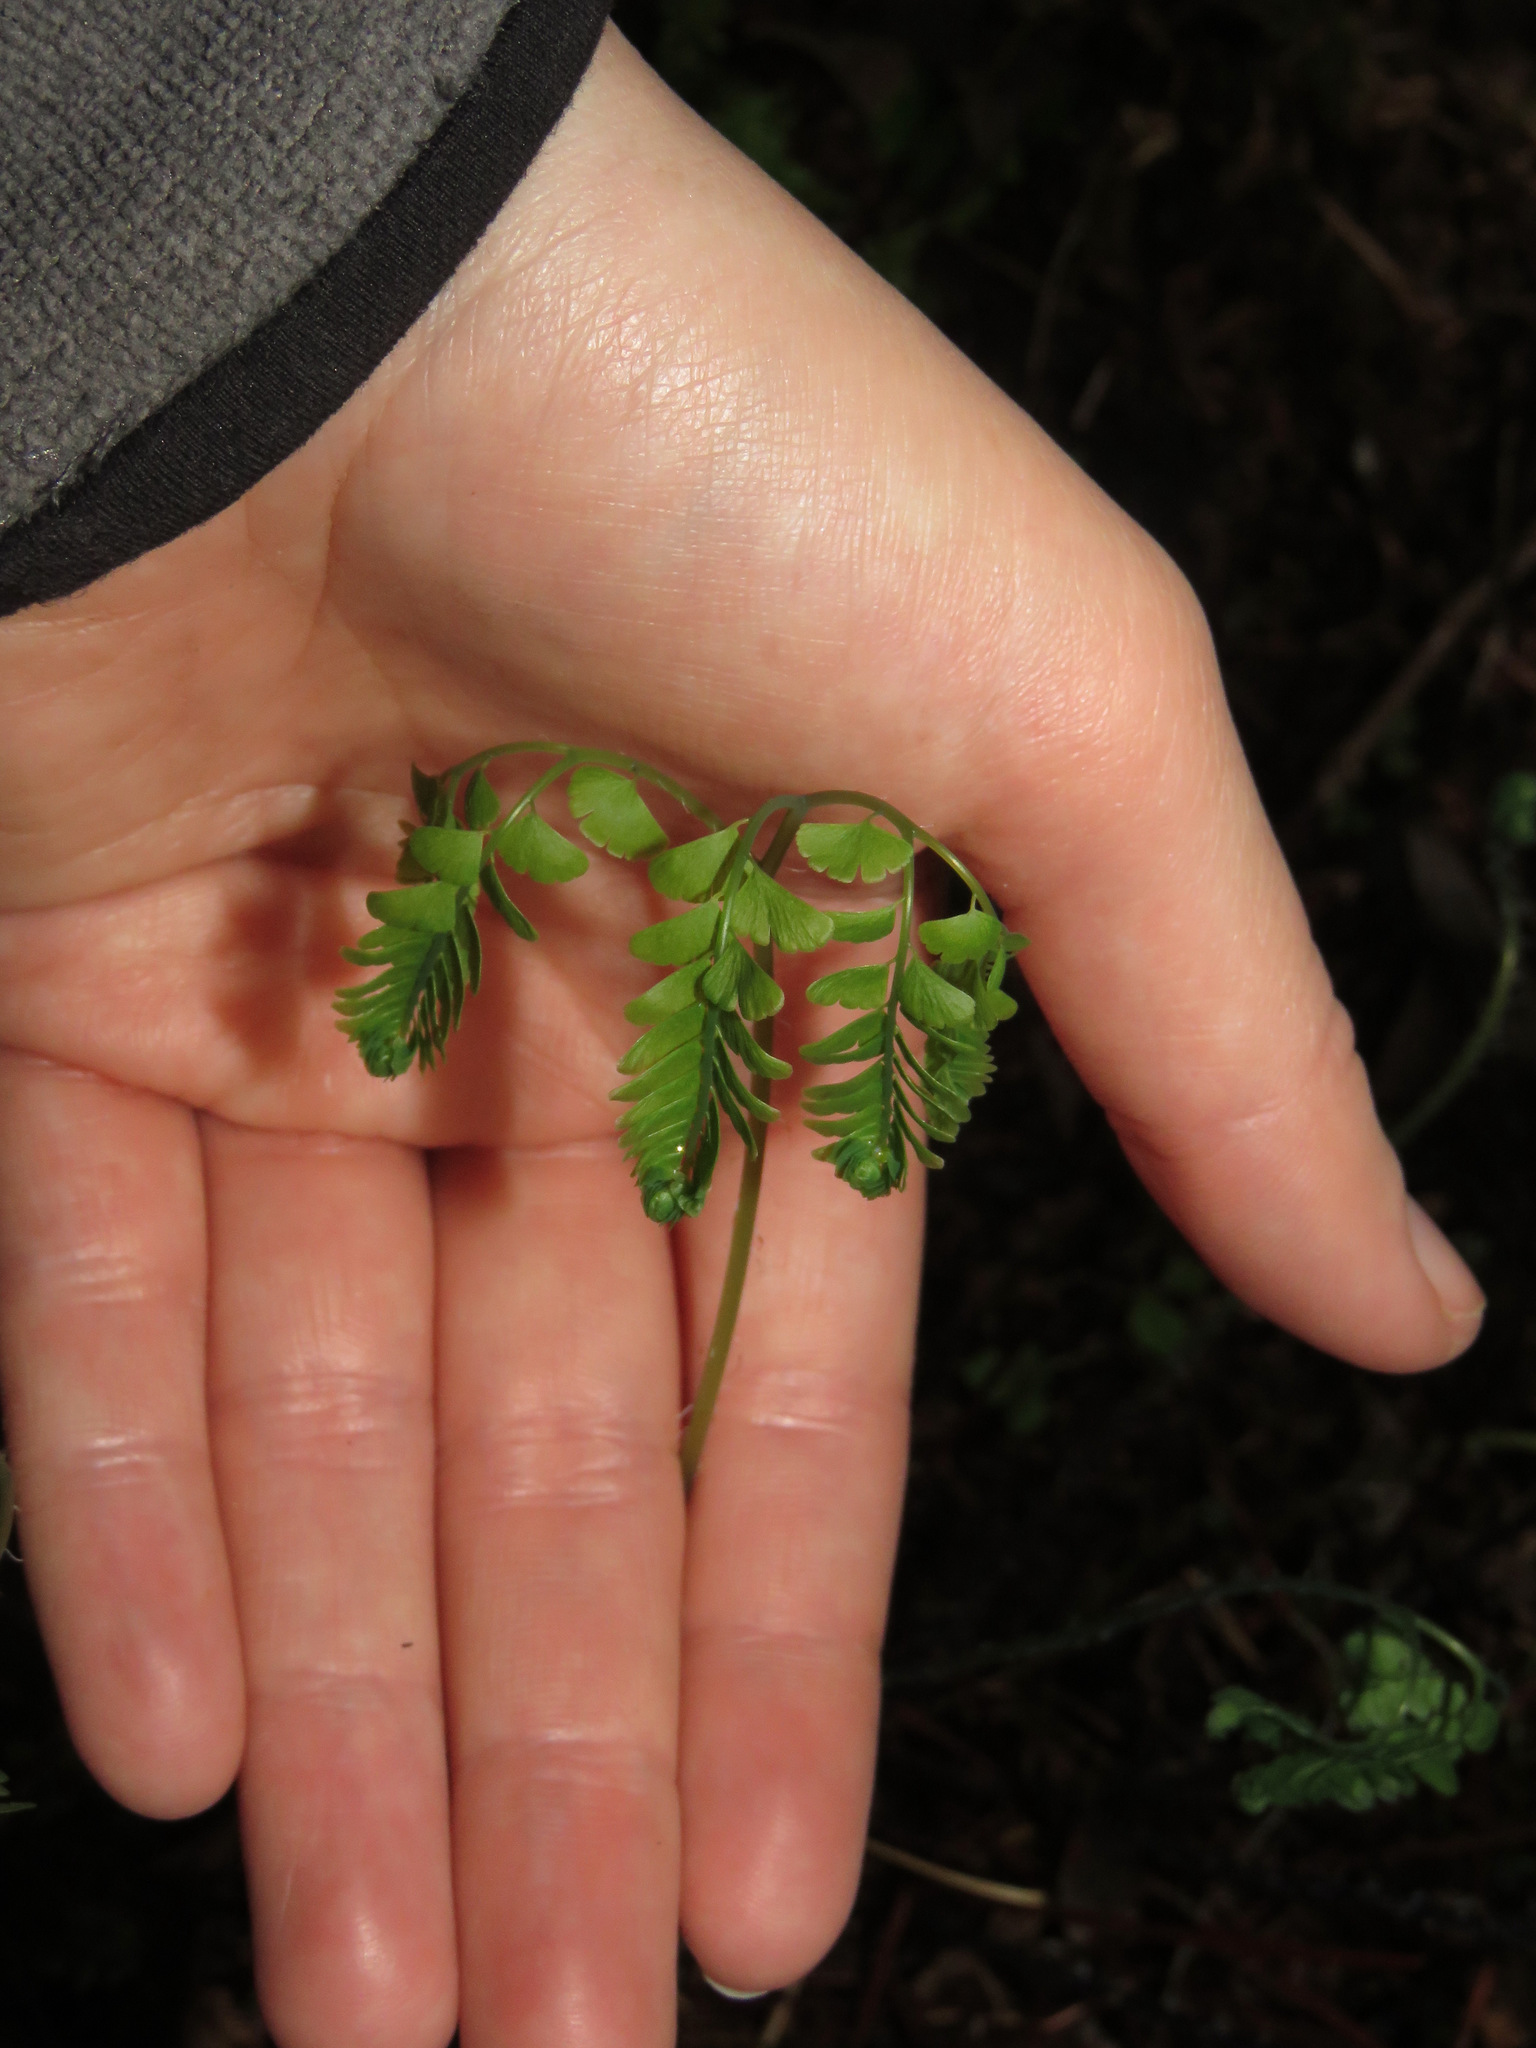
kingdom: Plantae
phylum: Tracheophyta
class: Polypodiopsida
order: Polypodiales
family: Pteridaceae
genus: Adiantum
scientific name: Adiantum aleuticum
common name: Aleutian maidenhair fern
